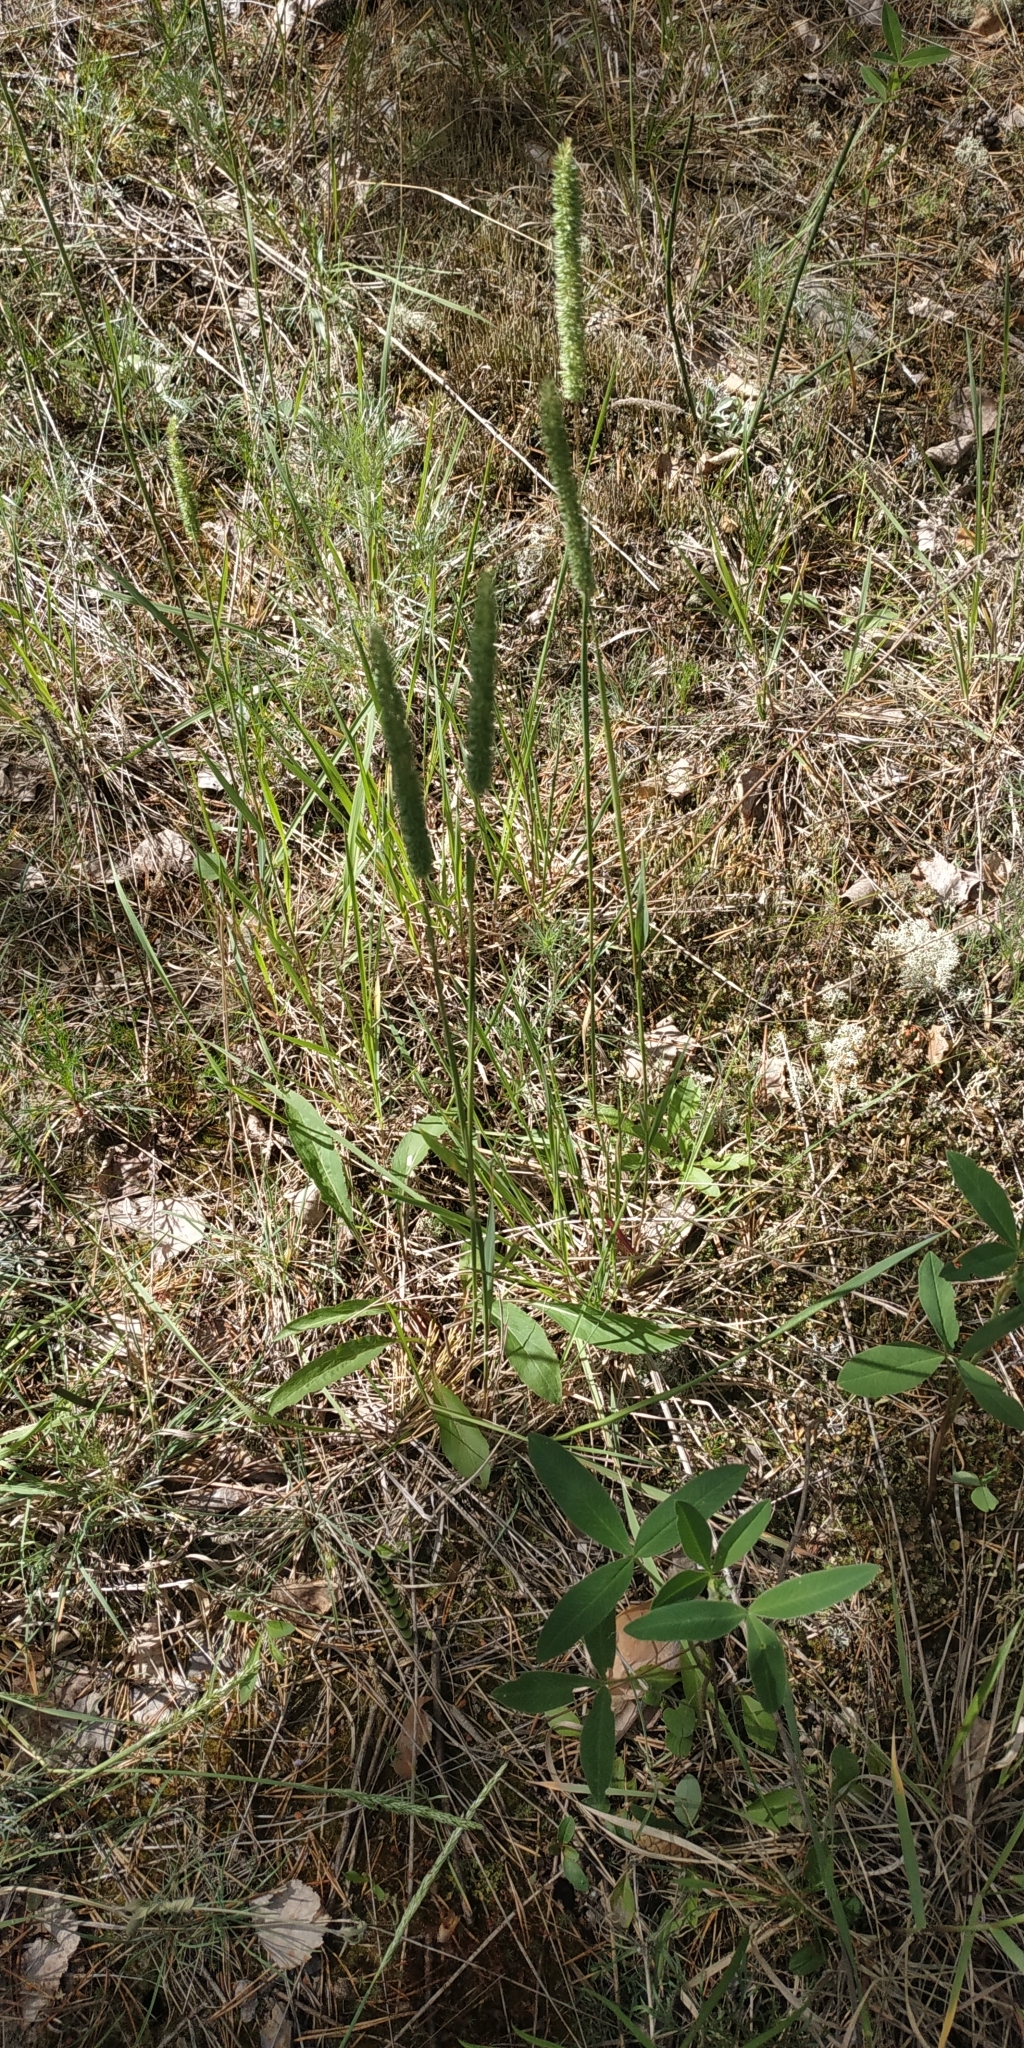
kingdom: Plantae
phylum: Tracheophyta
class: Liliopsida
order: Poales
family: Poaceae
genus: Phleum
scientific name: Phleum phleoides
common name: Purple-stem cat's-tail
